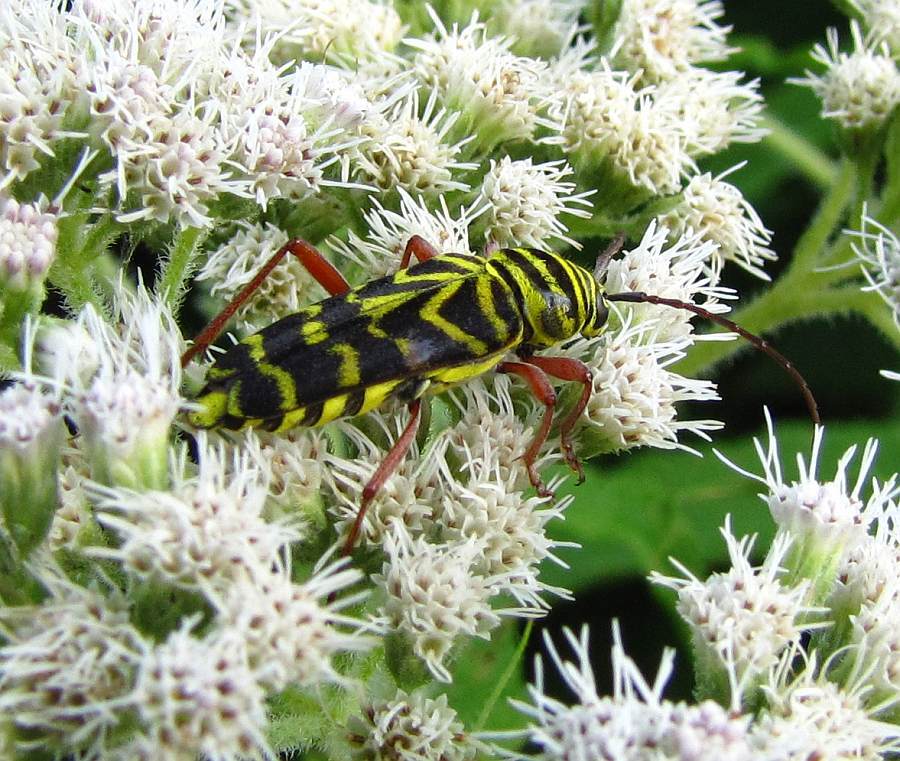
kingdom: Animalia
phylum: Arthropoda
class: Insecta
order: Coleoptera
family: Cerambycidae
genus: Megacyllene
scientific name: Megacyllene robiniae
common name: Locust borer
